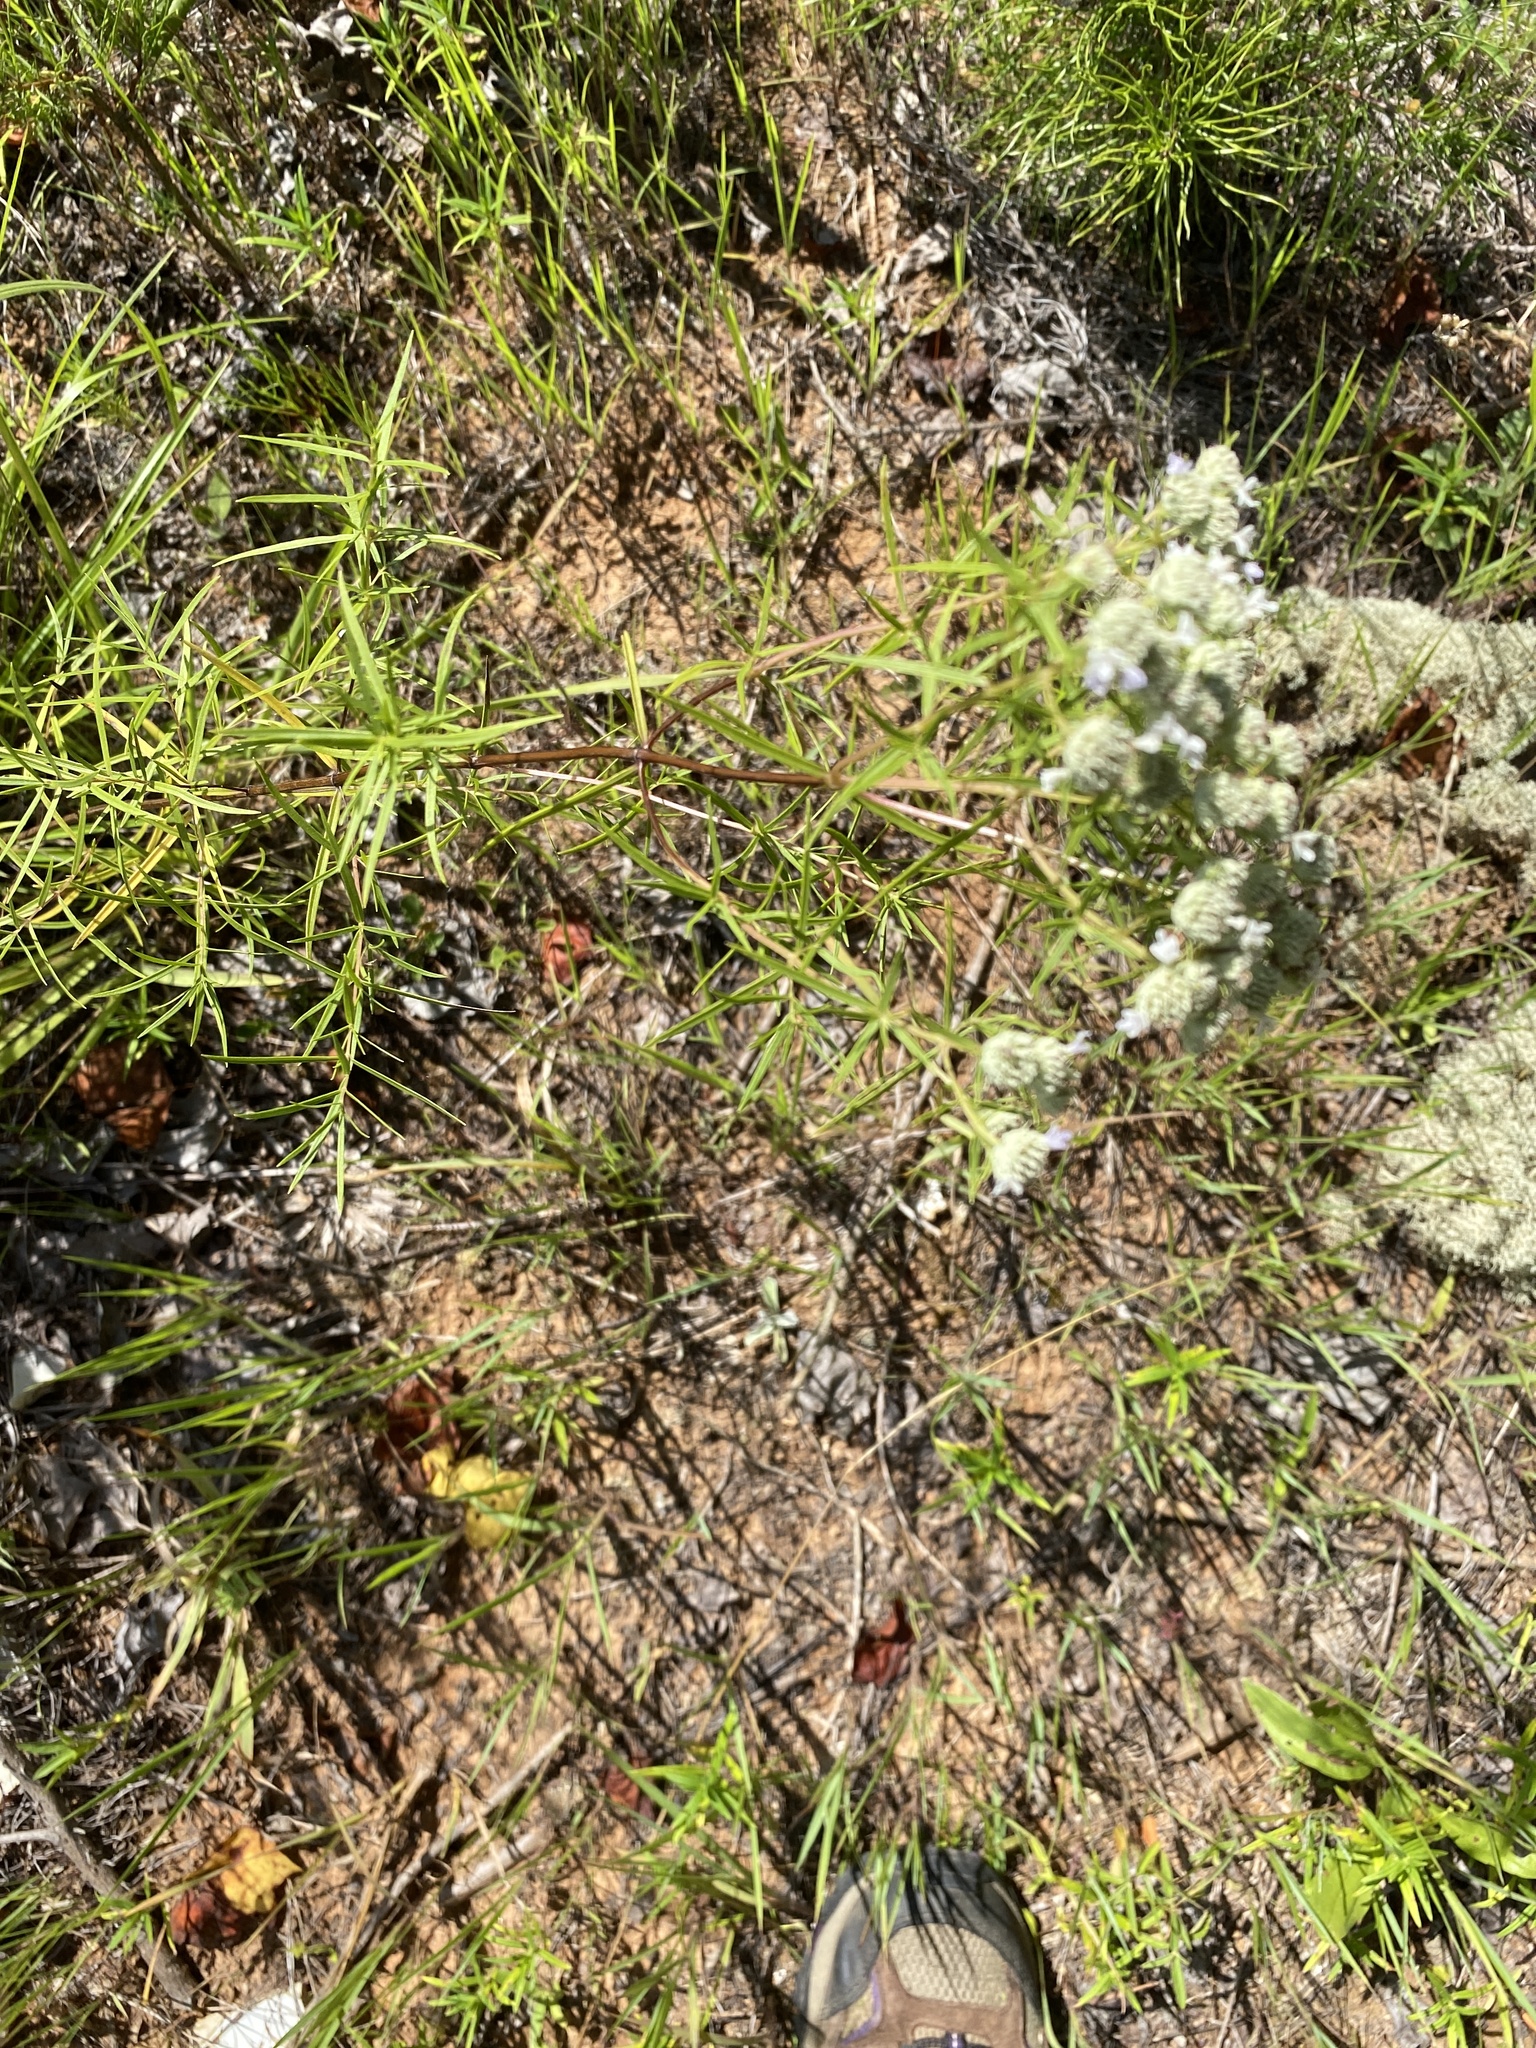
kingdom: Plantae
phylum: Tracheophyta
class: Magnoliopsida
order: Lamiales
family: Lamiaceae
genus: Pycnanthemum
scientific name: Pycnanthemum tenuifolium
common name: Narrow-leaf mountain-mint
